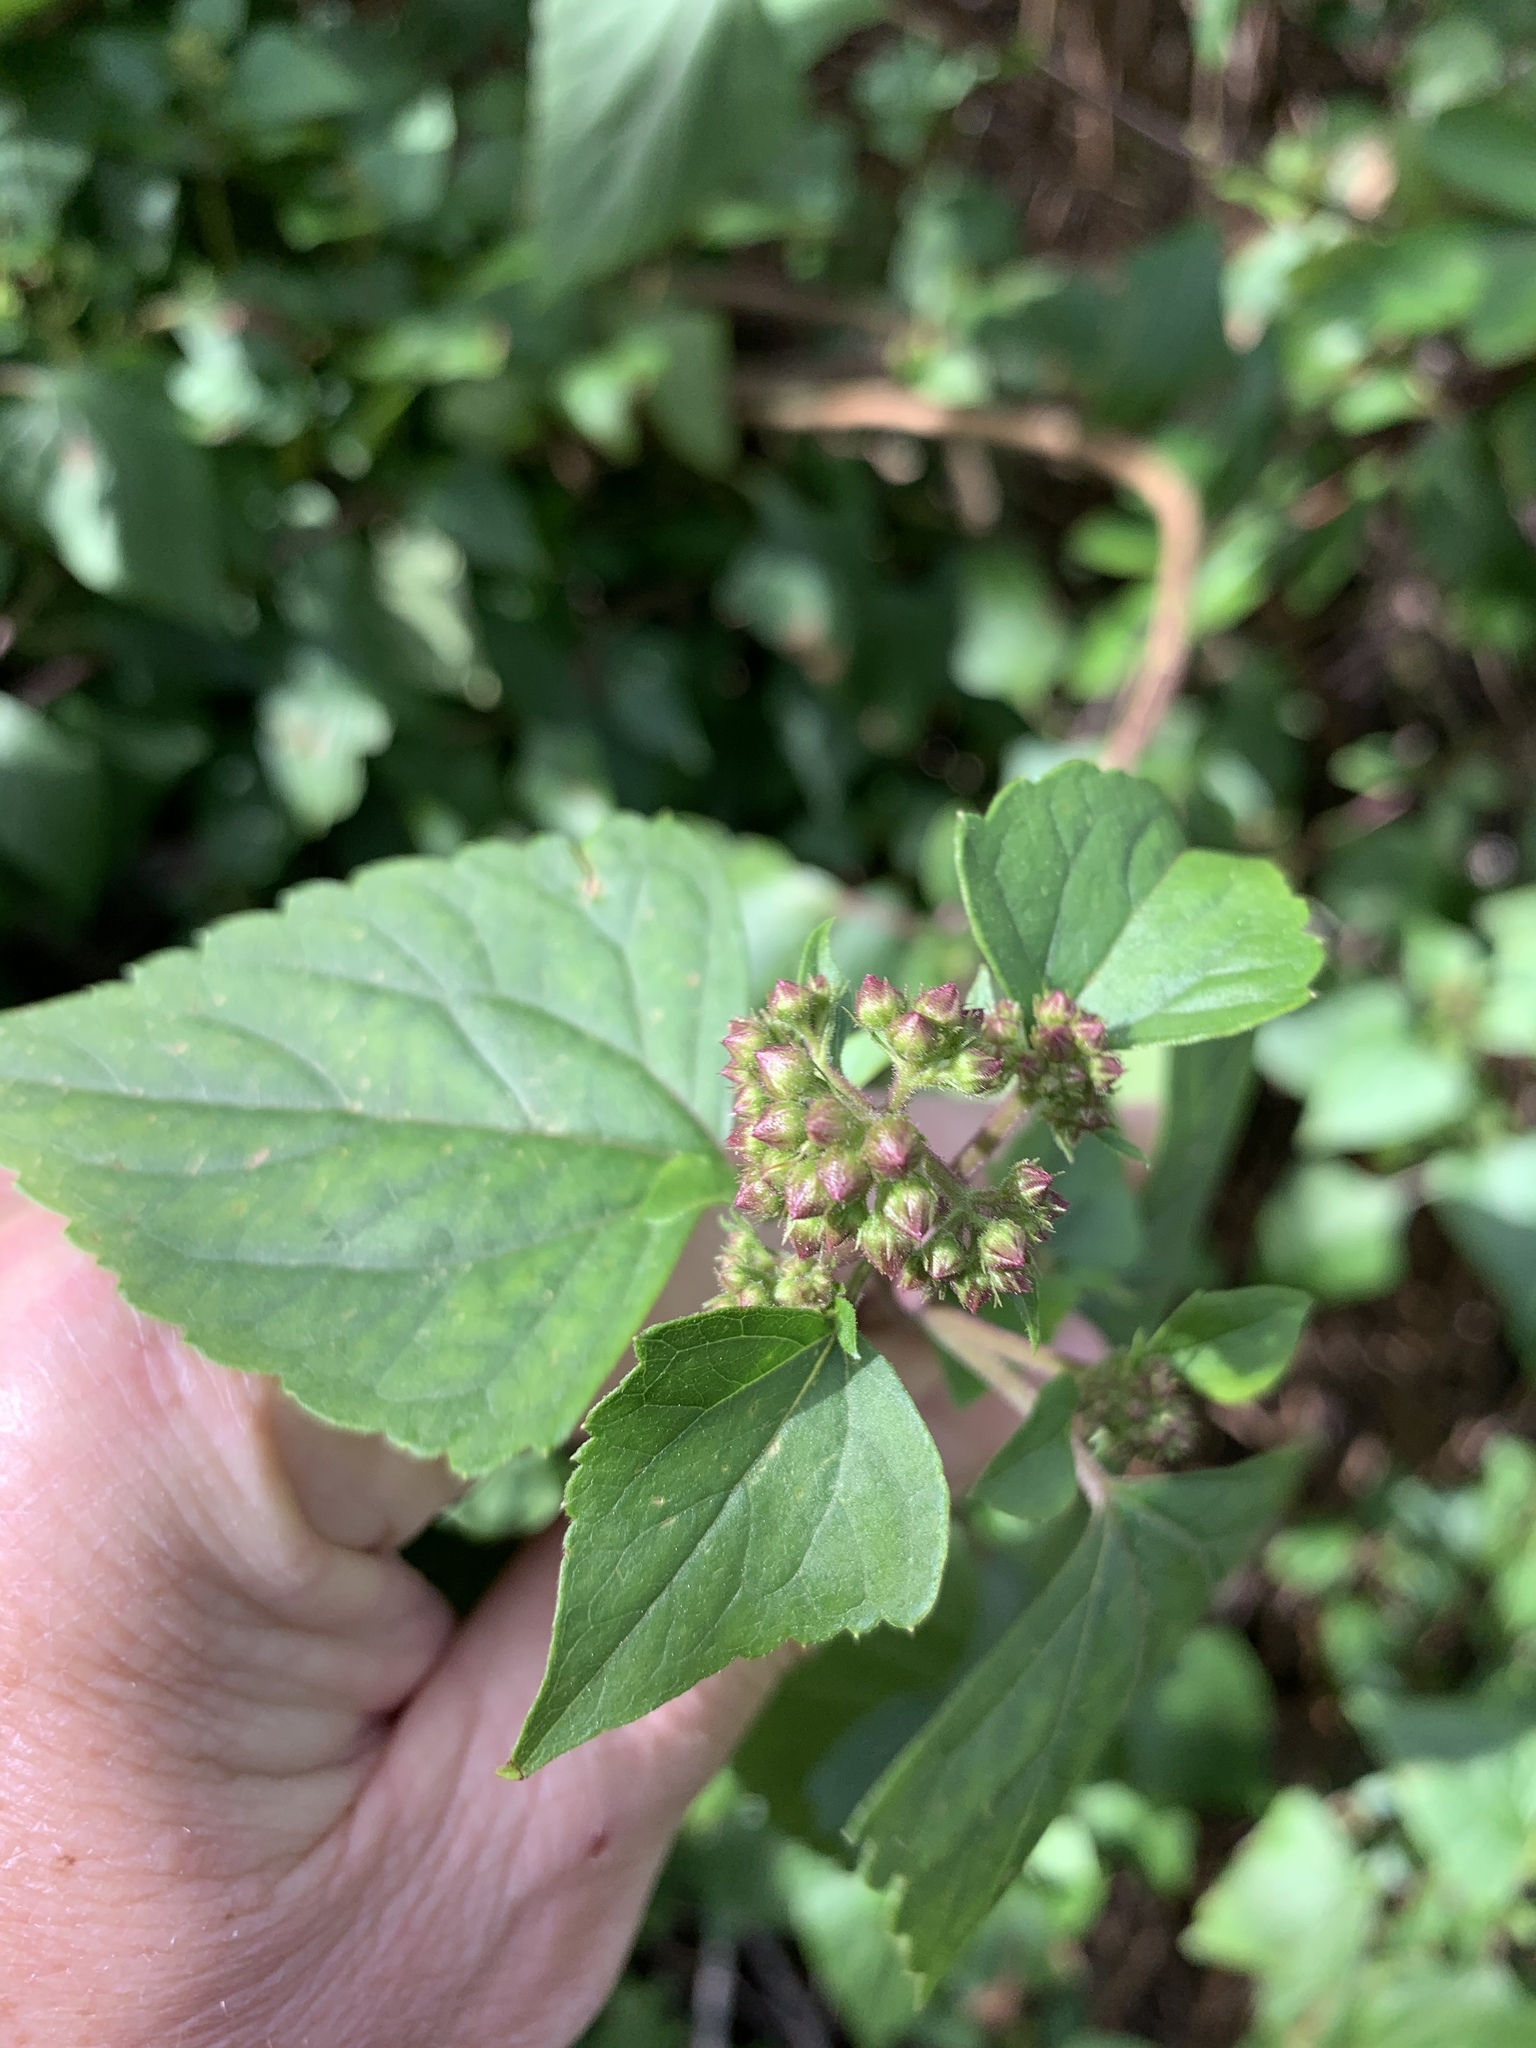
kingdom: Plantae
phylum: Tracheophyta
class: Magnoliopsida
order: Asterales
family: Asteraceae
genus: Ageratina
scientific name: Ageratina adenophora
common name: Sticky snakeroot
